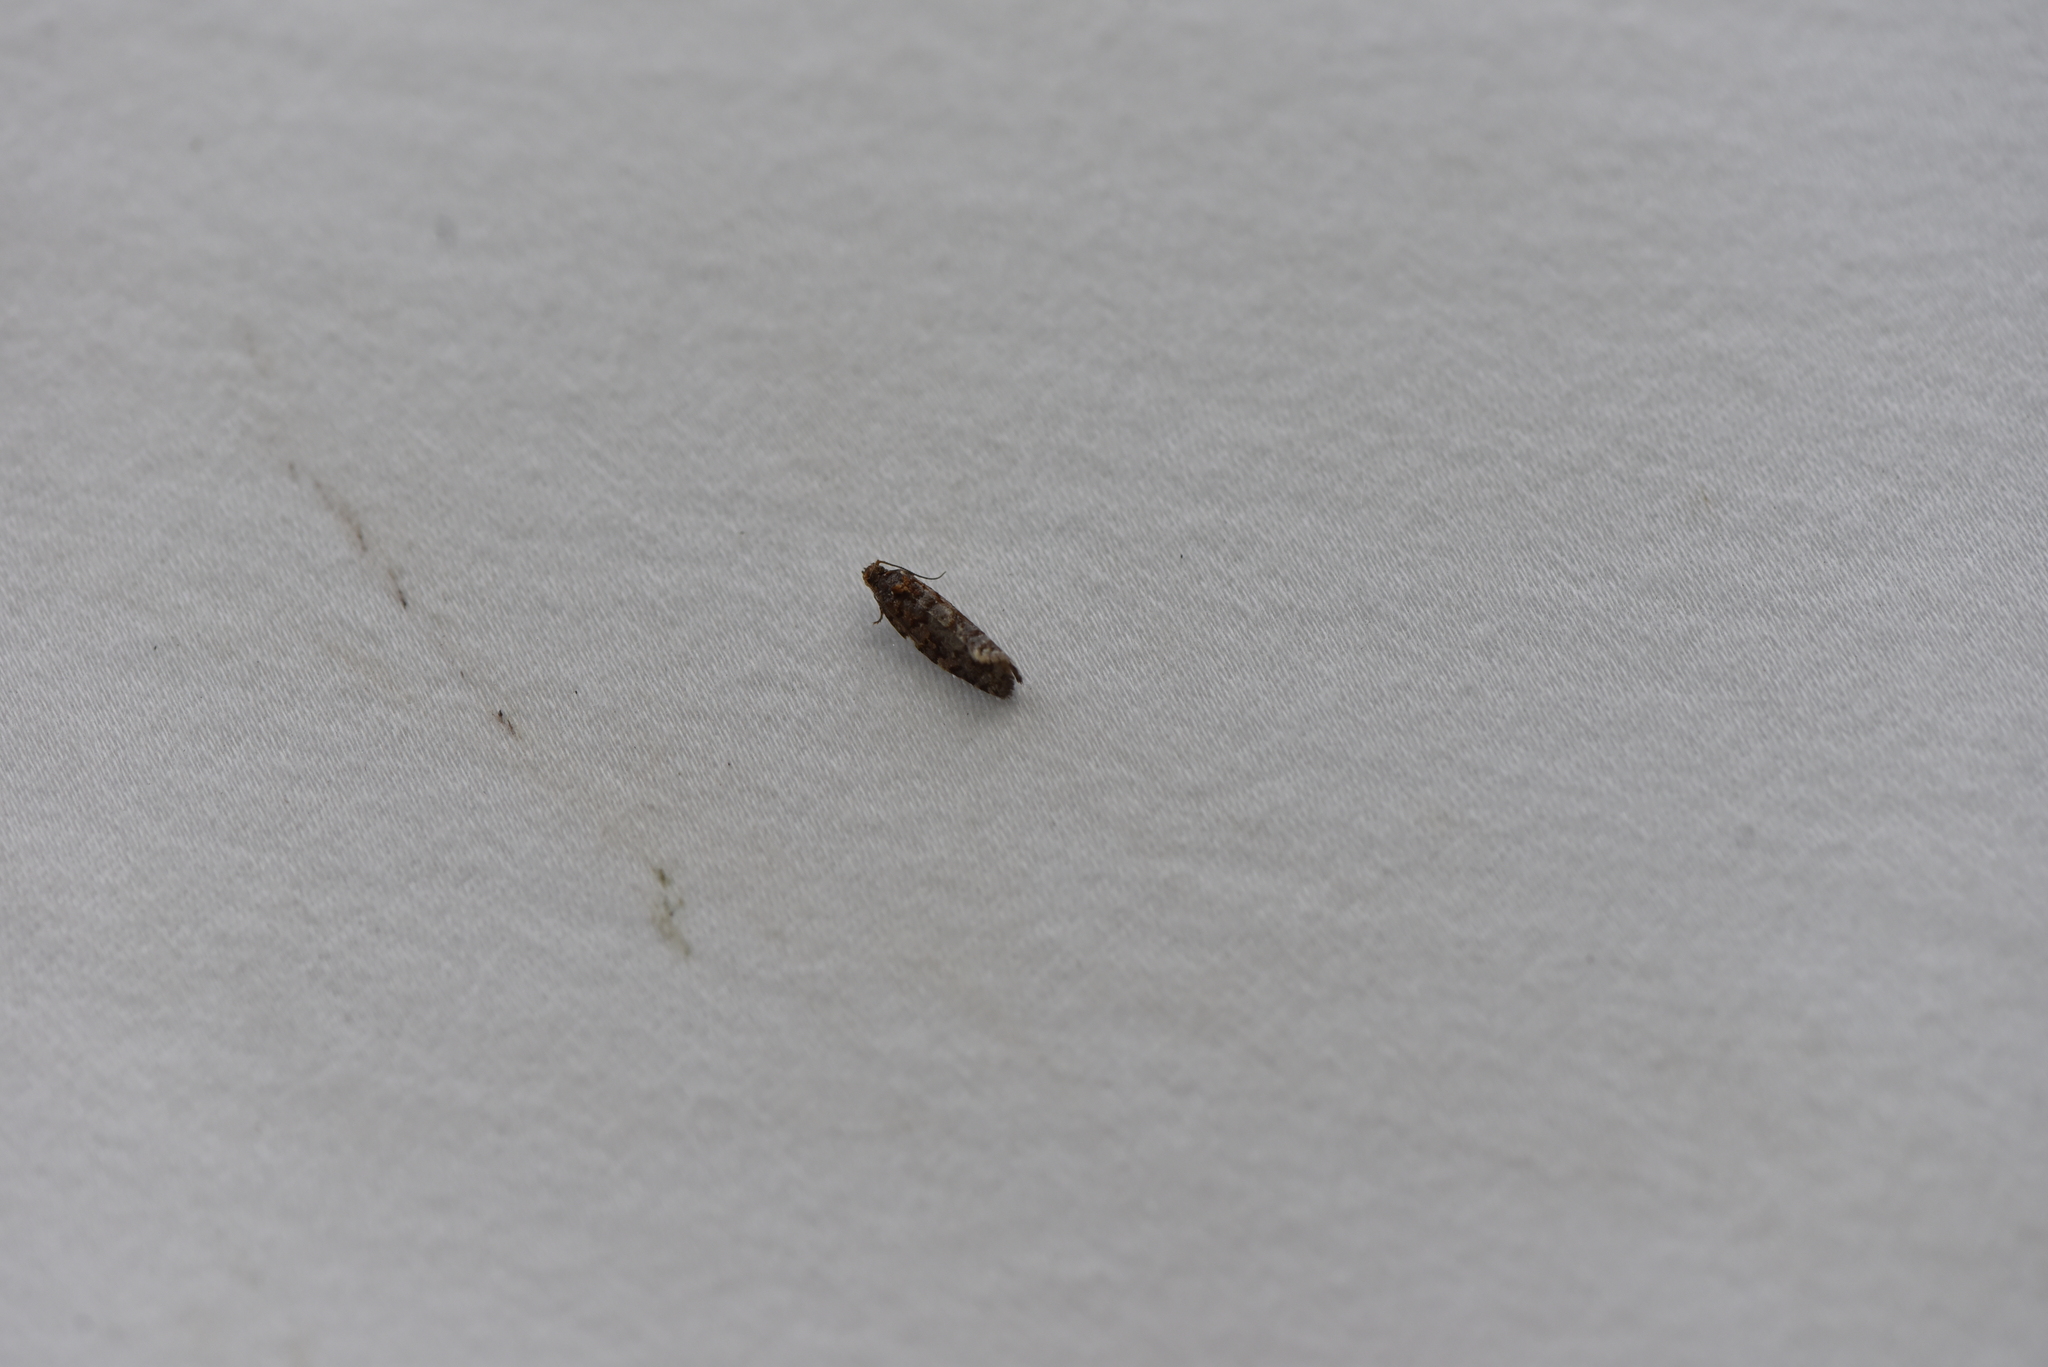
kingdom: Animalia
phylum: Arthropoda
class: Insecta
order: Lepidoptera
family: Tortricidae
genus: Argyrotaenia
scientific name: Argyrotaenia tabulana
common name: Jack pine tube moth
